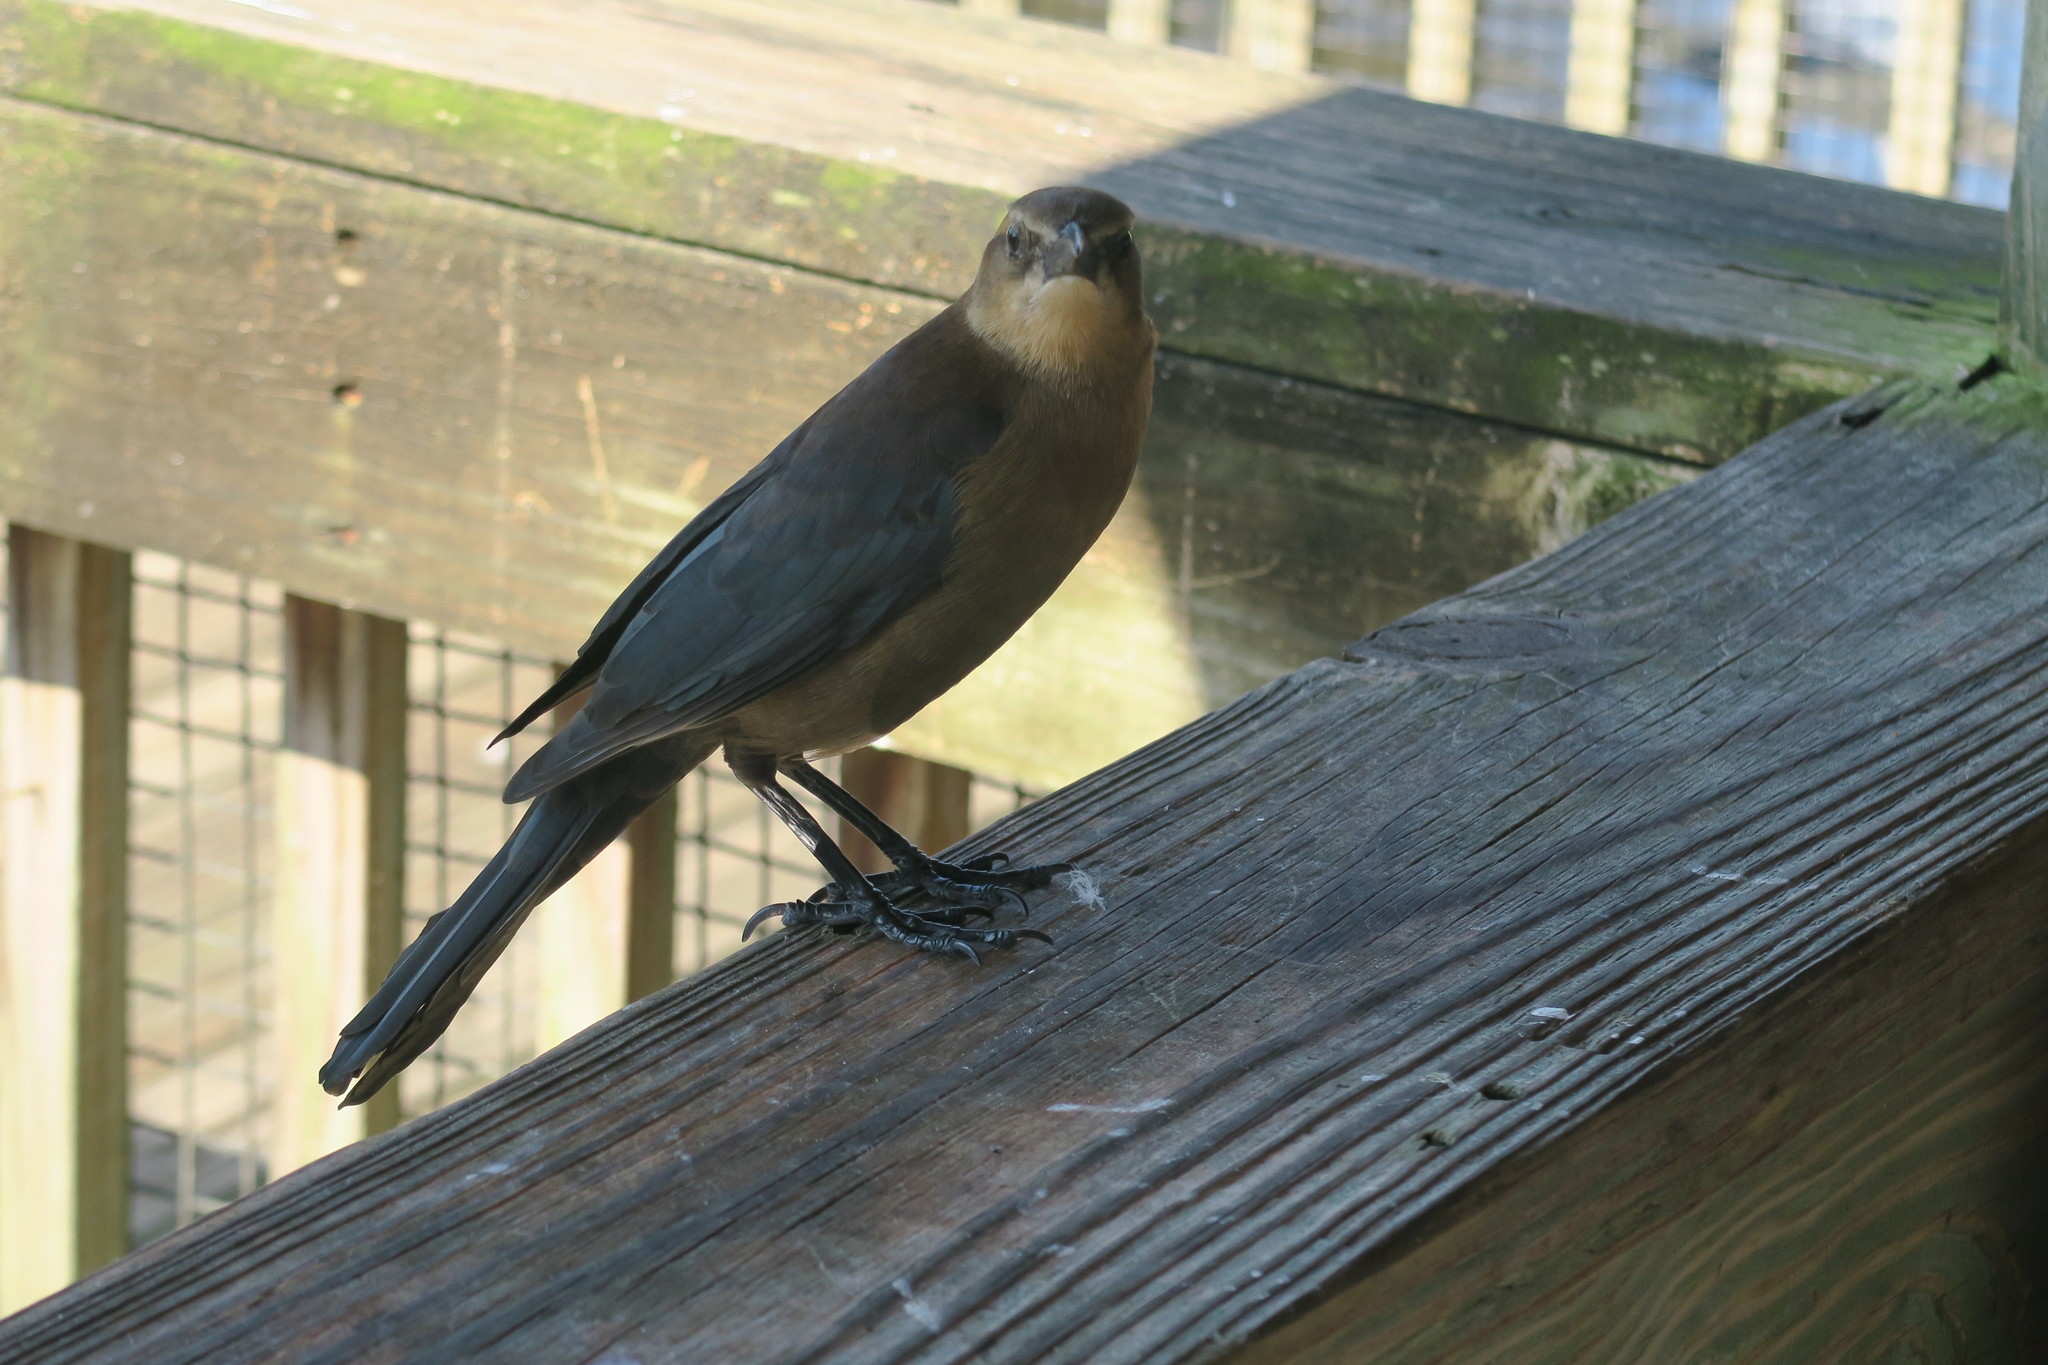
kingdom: Animalia
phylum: Chordata
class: Aves
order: Passeriformes
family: Icteridae
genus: Quiscalus
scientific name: Quiscalus major
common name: Boat-tailed grackle
